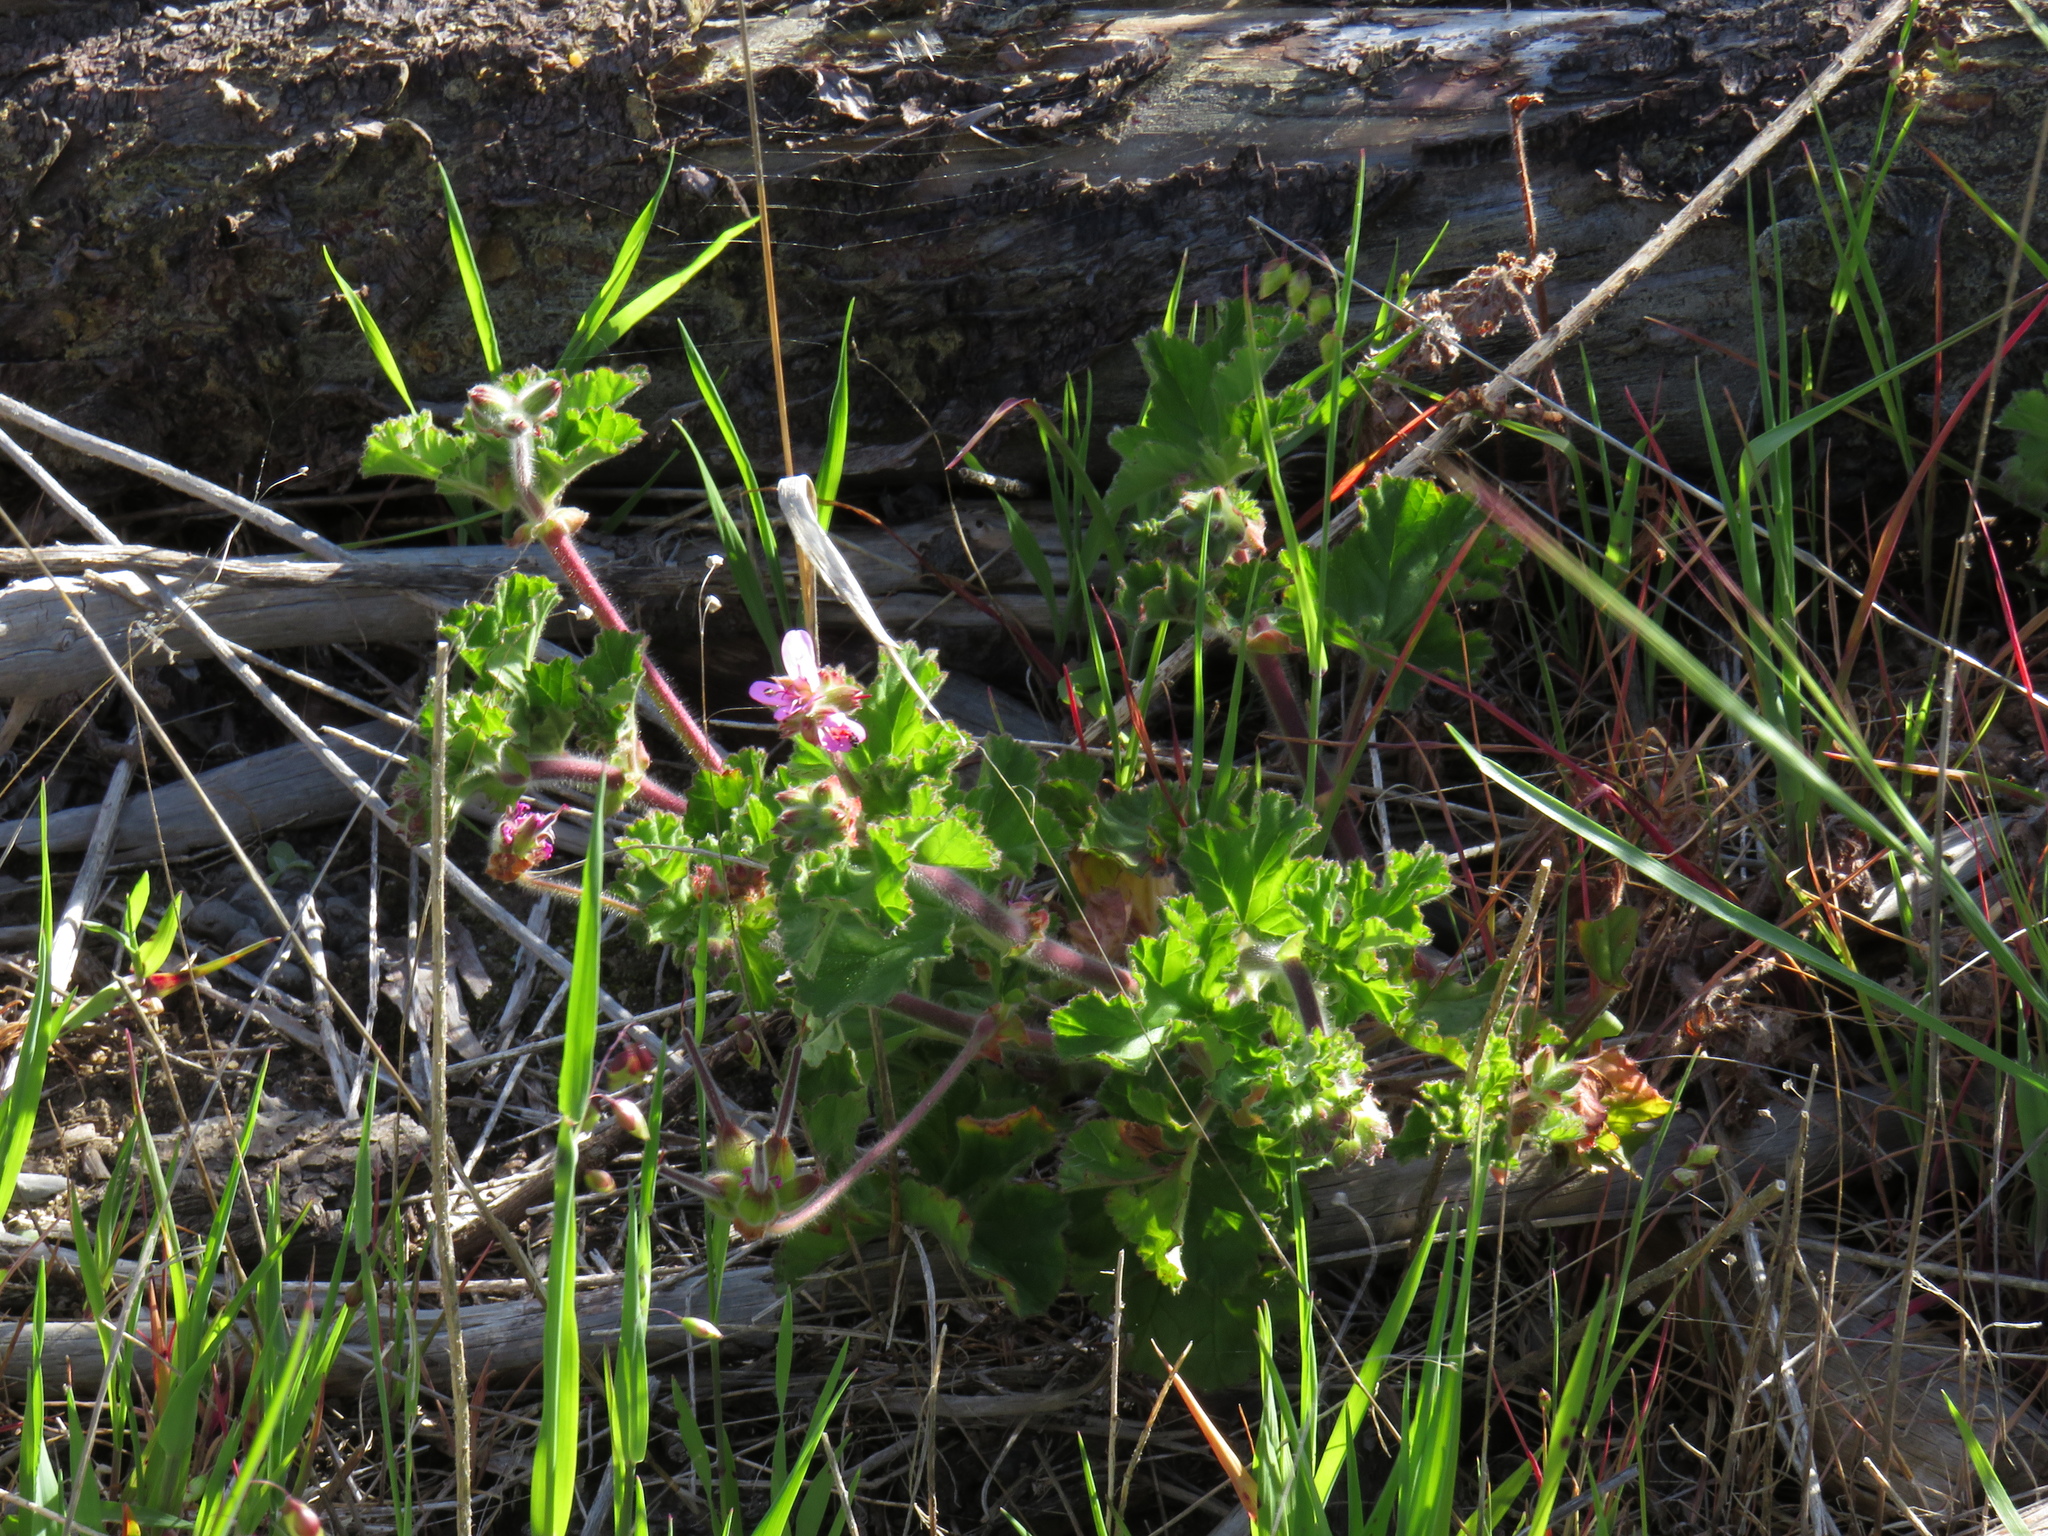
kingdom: Plantae
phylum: Tracheophyta
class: Magnoliopsida
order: Geraniales
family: Geraniaceae
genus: Pelargonium
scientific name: Pelargonium capitatum
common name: Rose scented geranium
